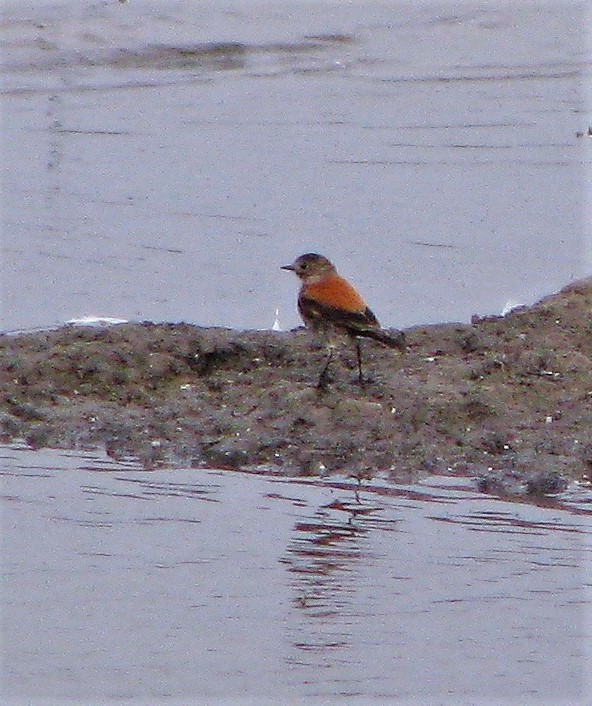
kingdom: Animalia
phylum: Chordata
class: Aves
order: Passeriformes
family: Tyrannidae
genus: Lessonia
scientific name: Lessonia rufa
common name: Austral negrito
